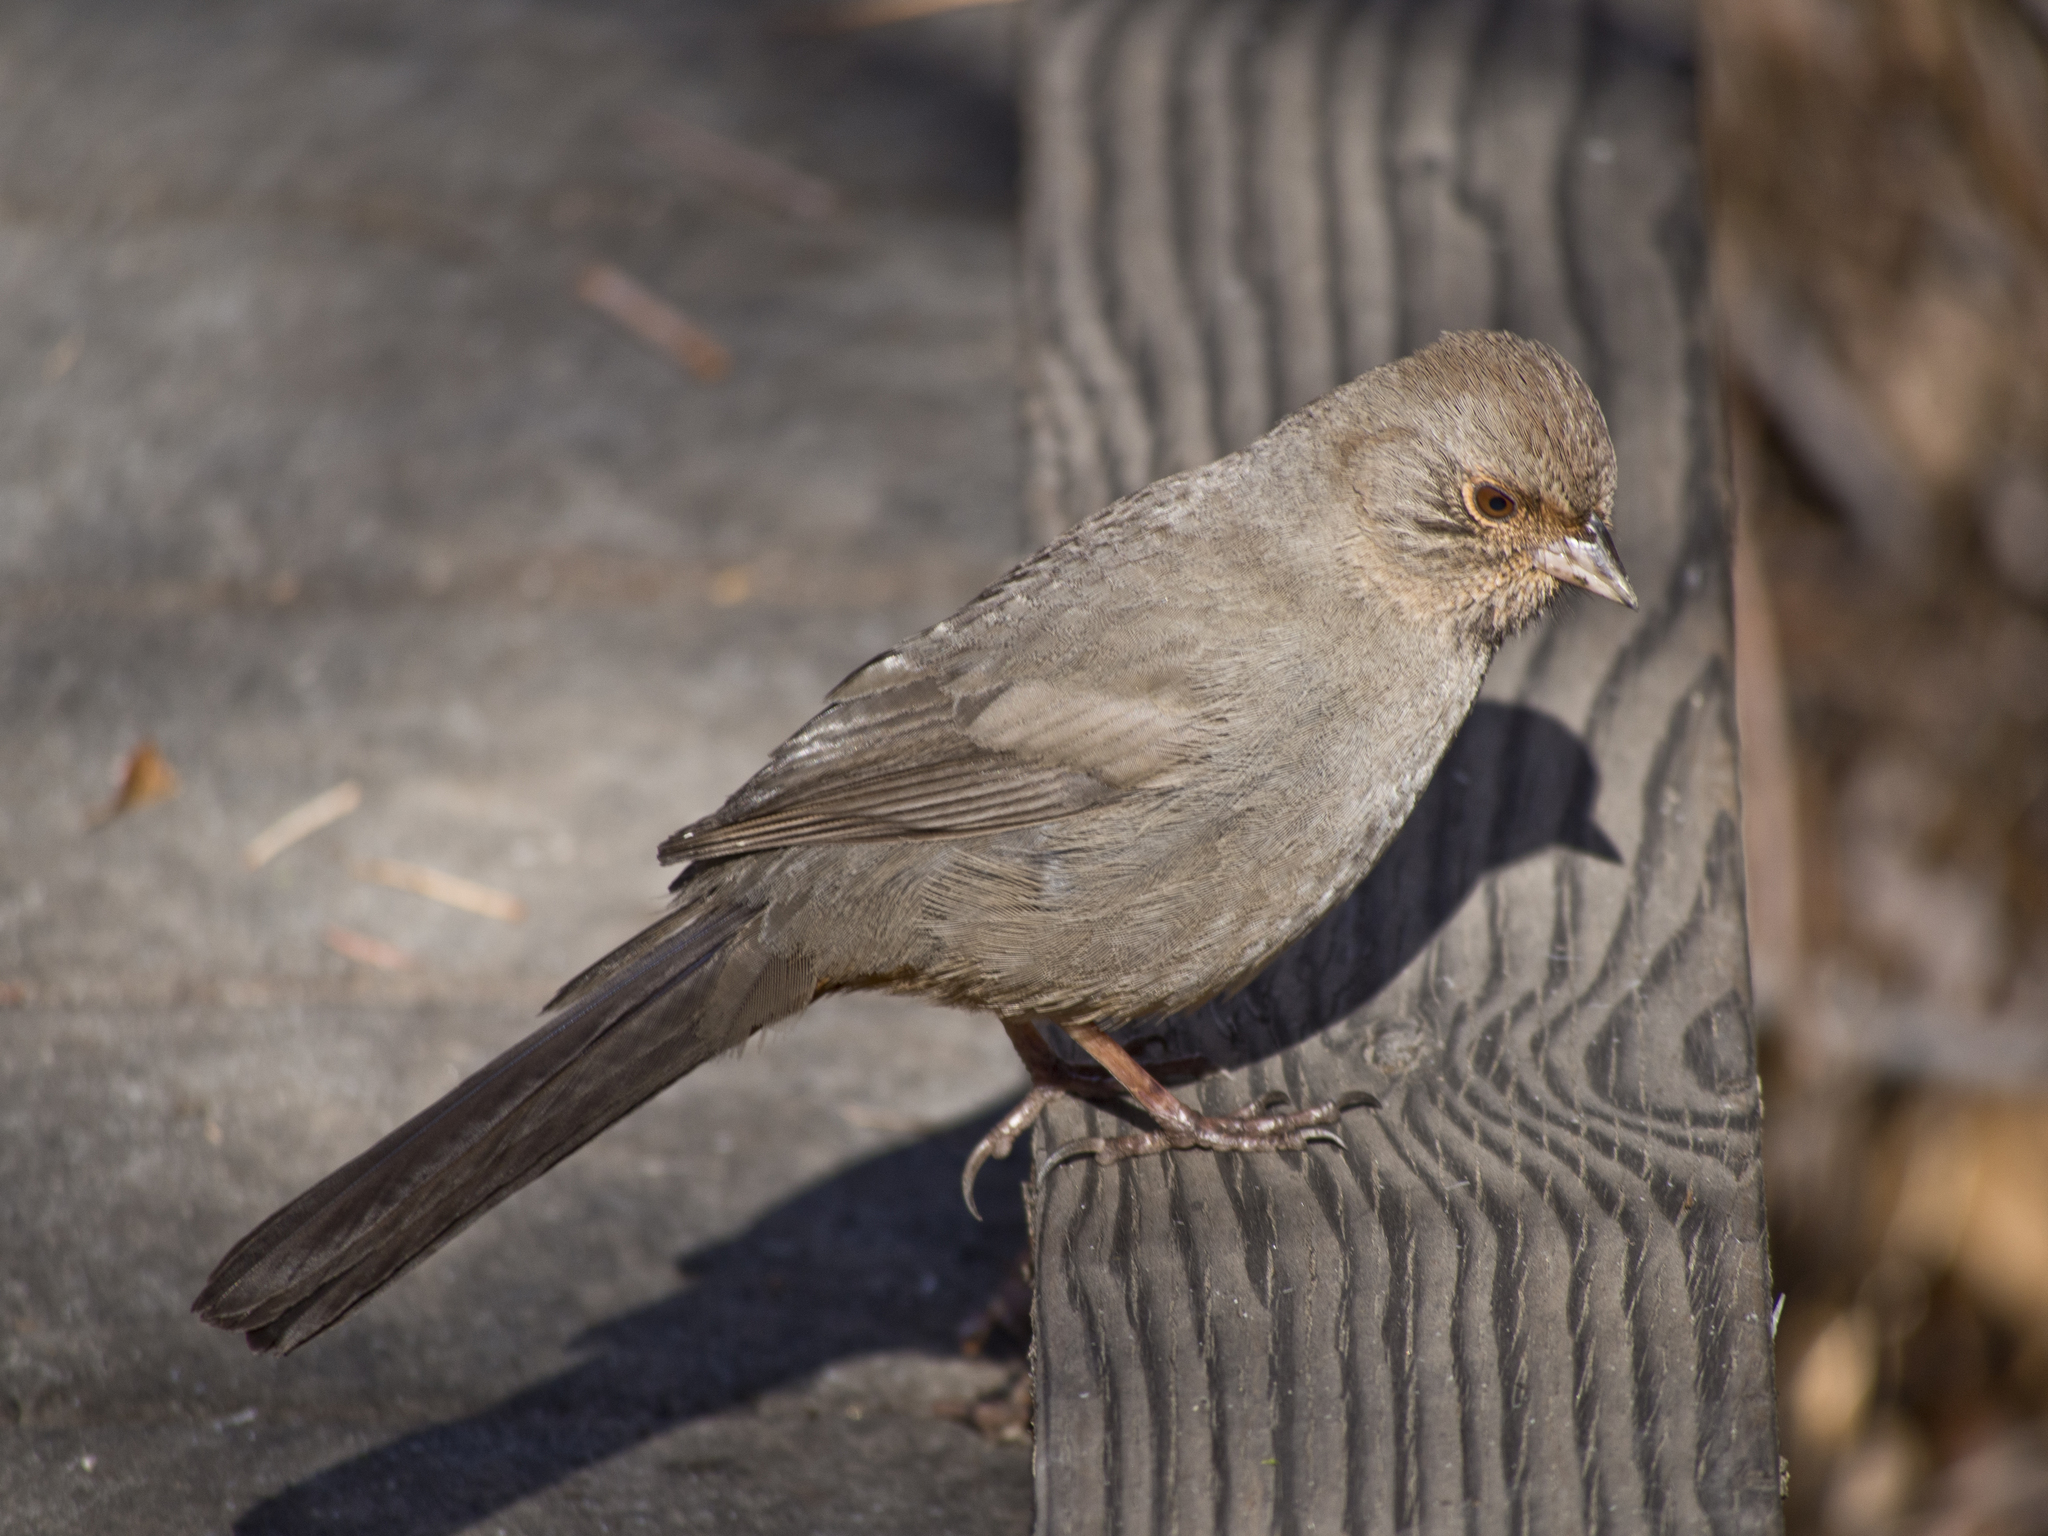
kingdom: Animalia
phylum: Chordata
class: Aves
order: Passeriformes
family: Passerellidae
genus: Melozone
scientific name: Melozone crissalis
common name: California towhee
